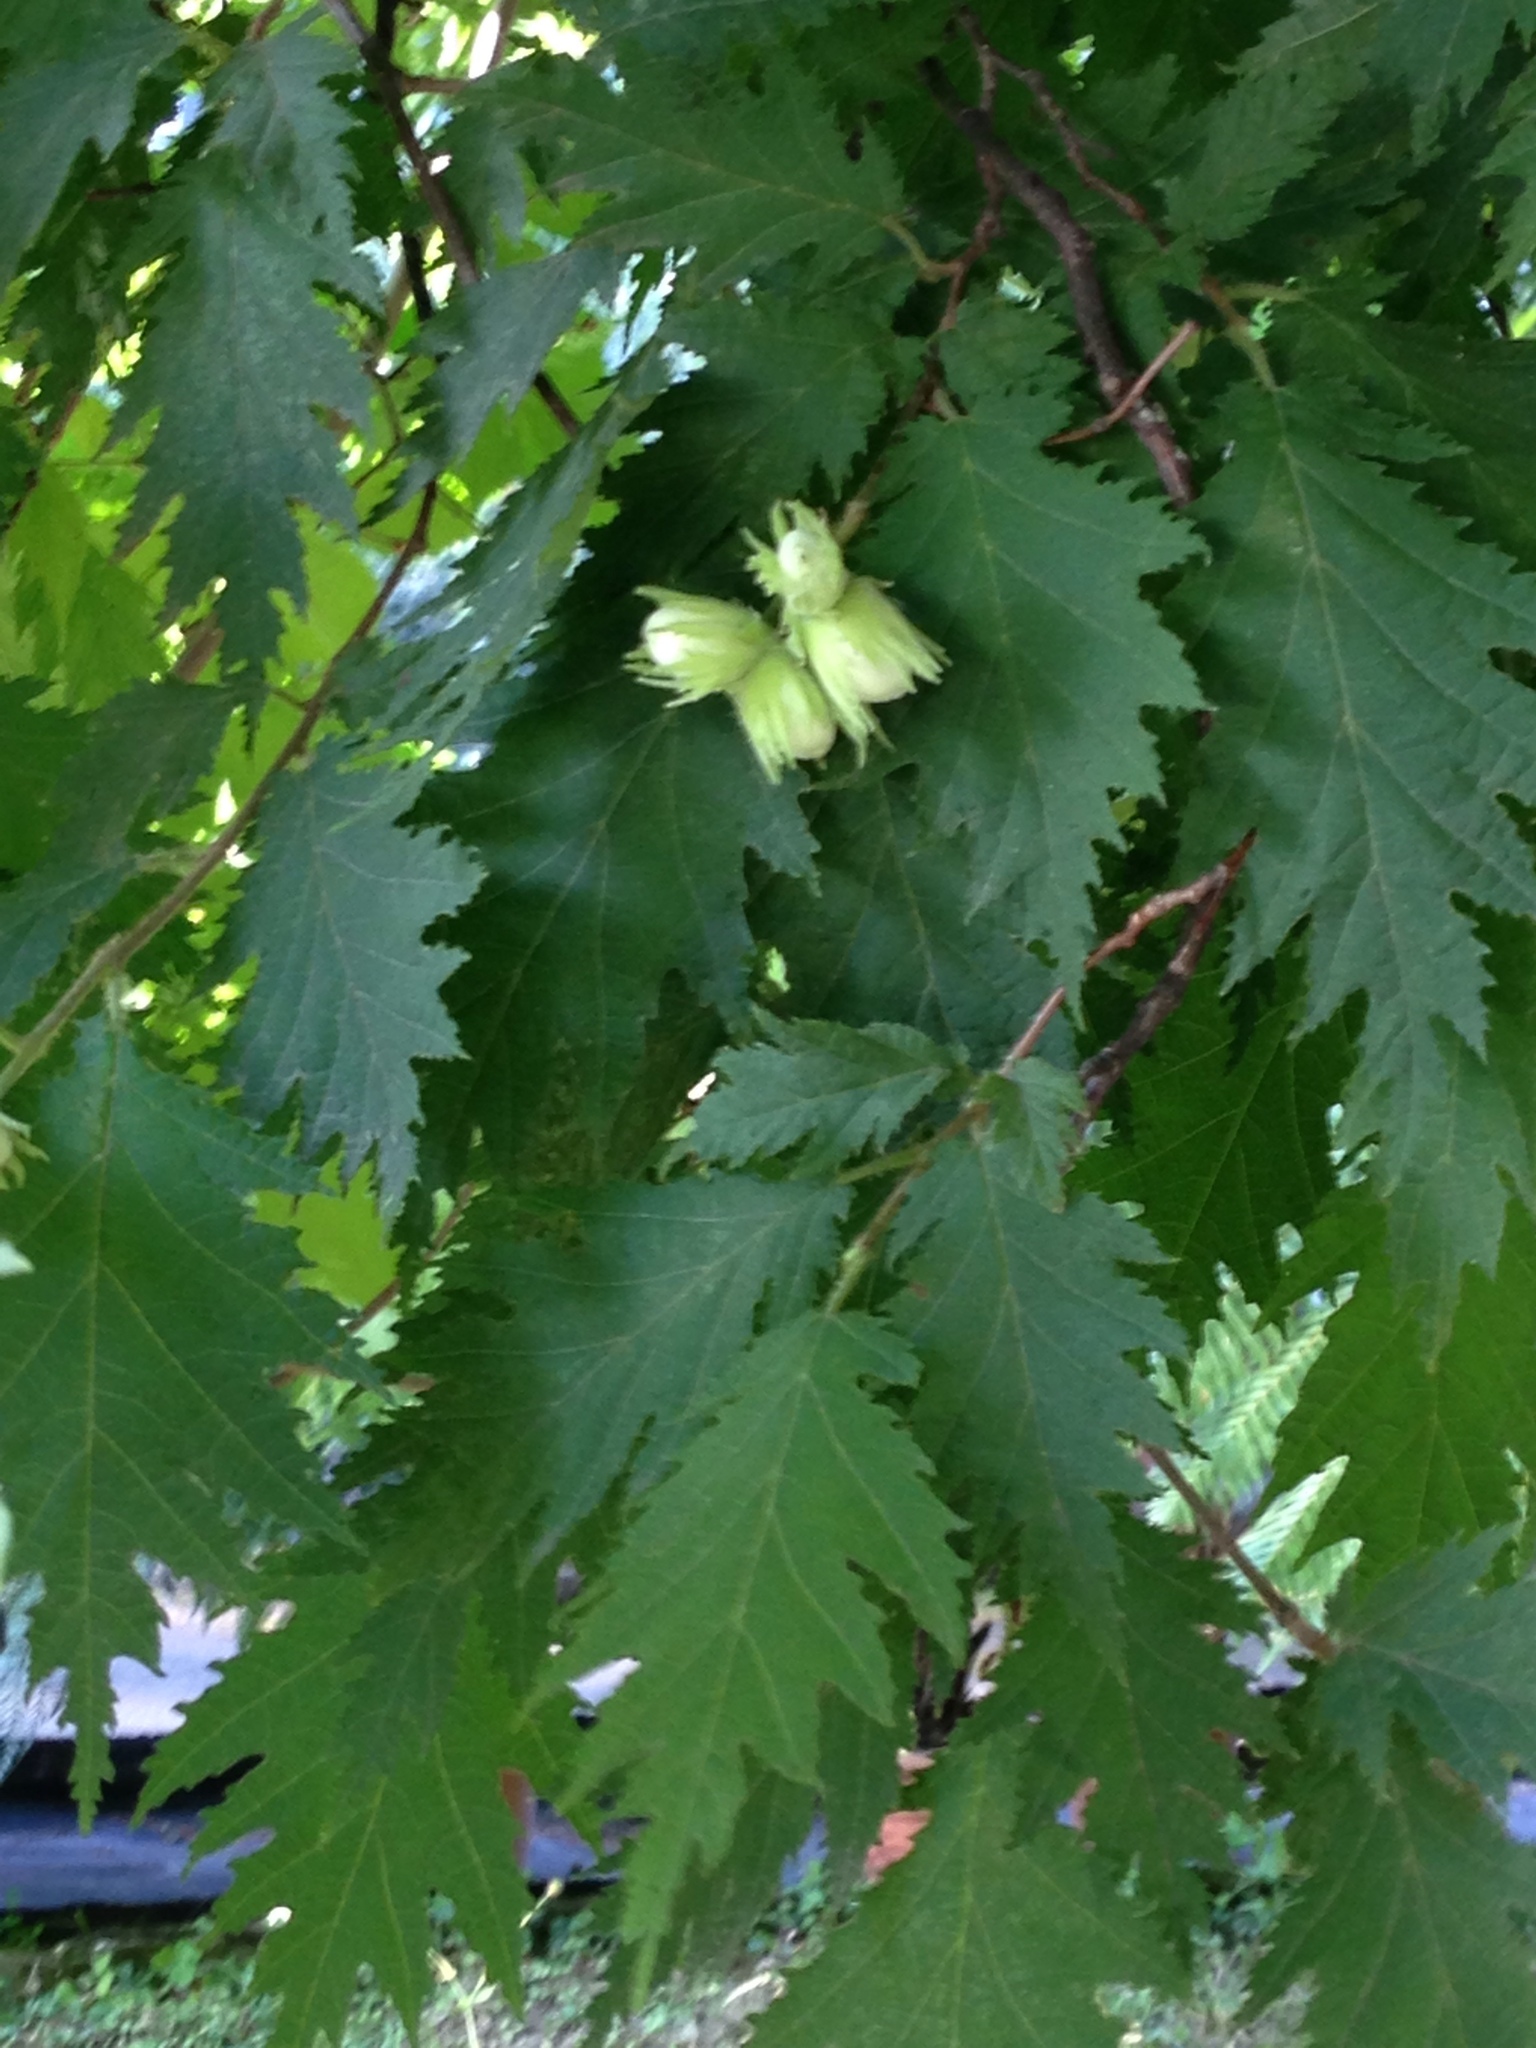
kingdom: Plantae
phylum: Tracheophyta
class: Magnoliopsida
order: Fagales
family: Betulaceae
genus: Corylus
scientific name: Corylus avellana
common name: European hazel
